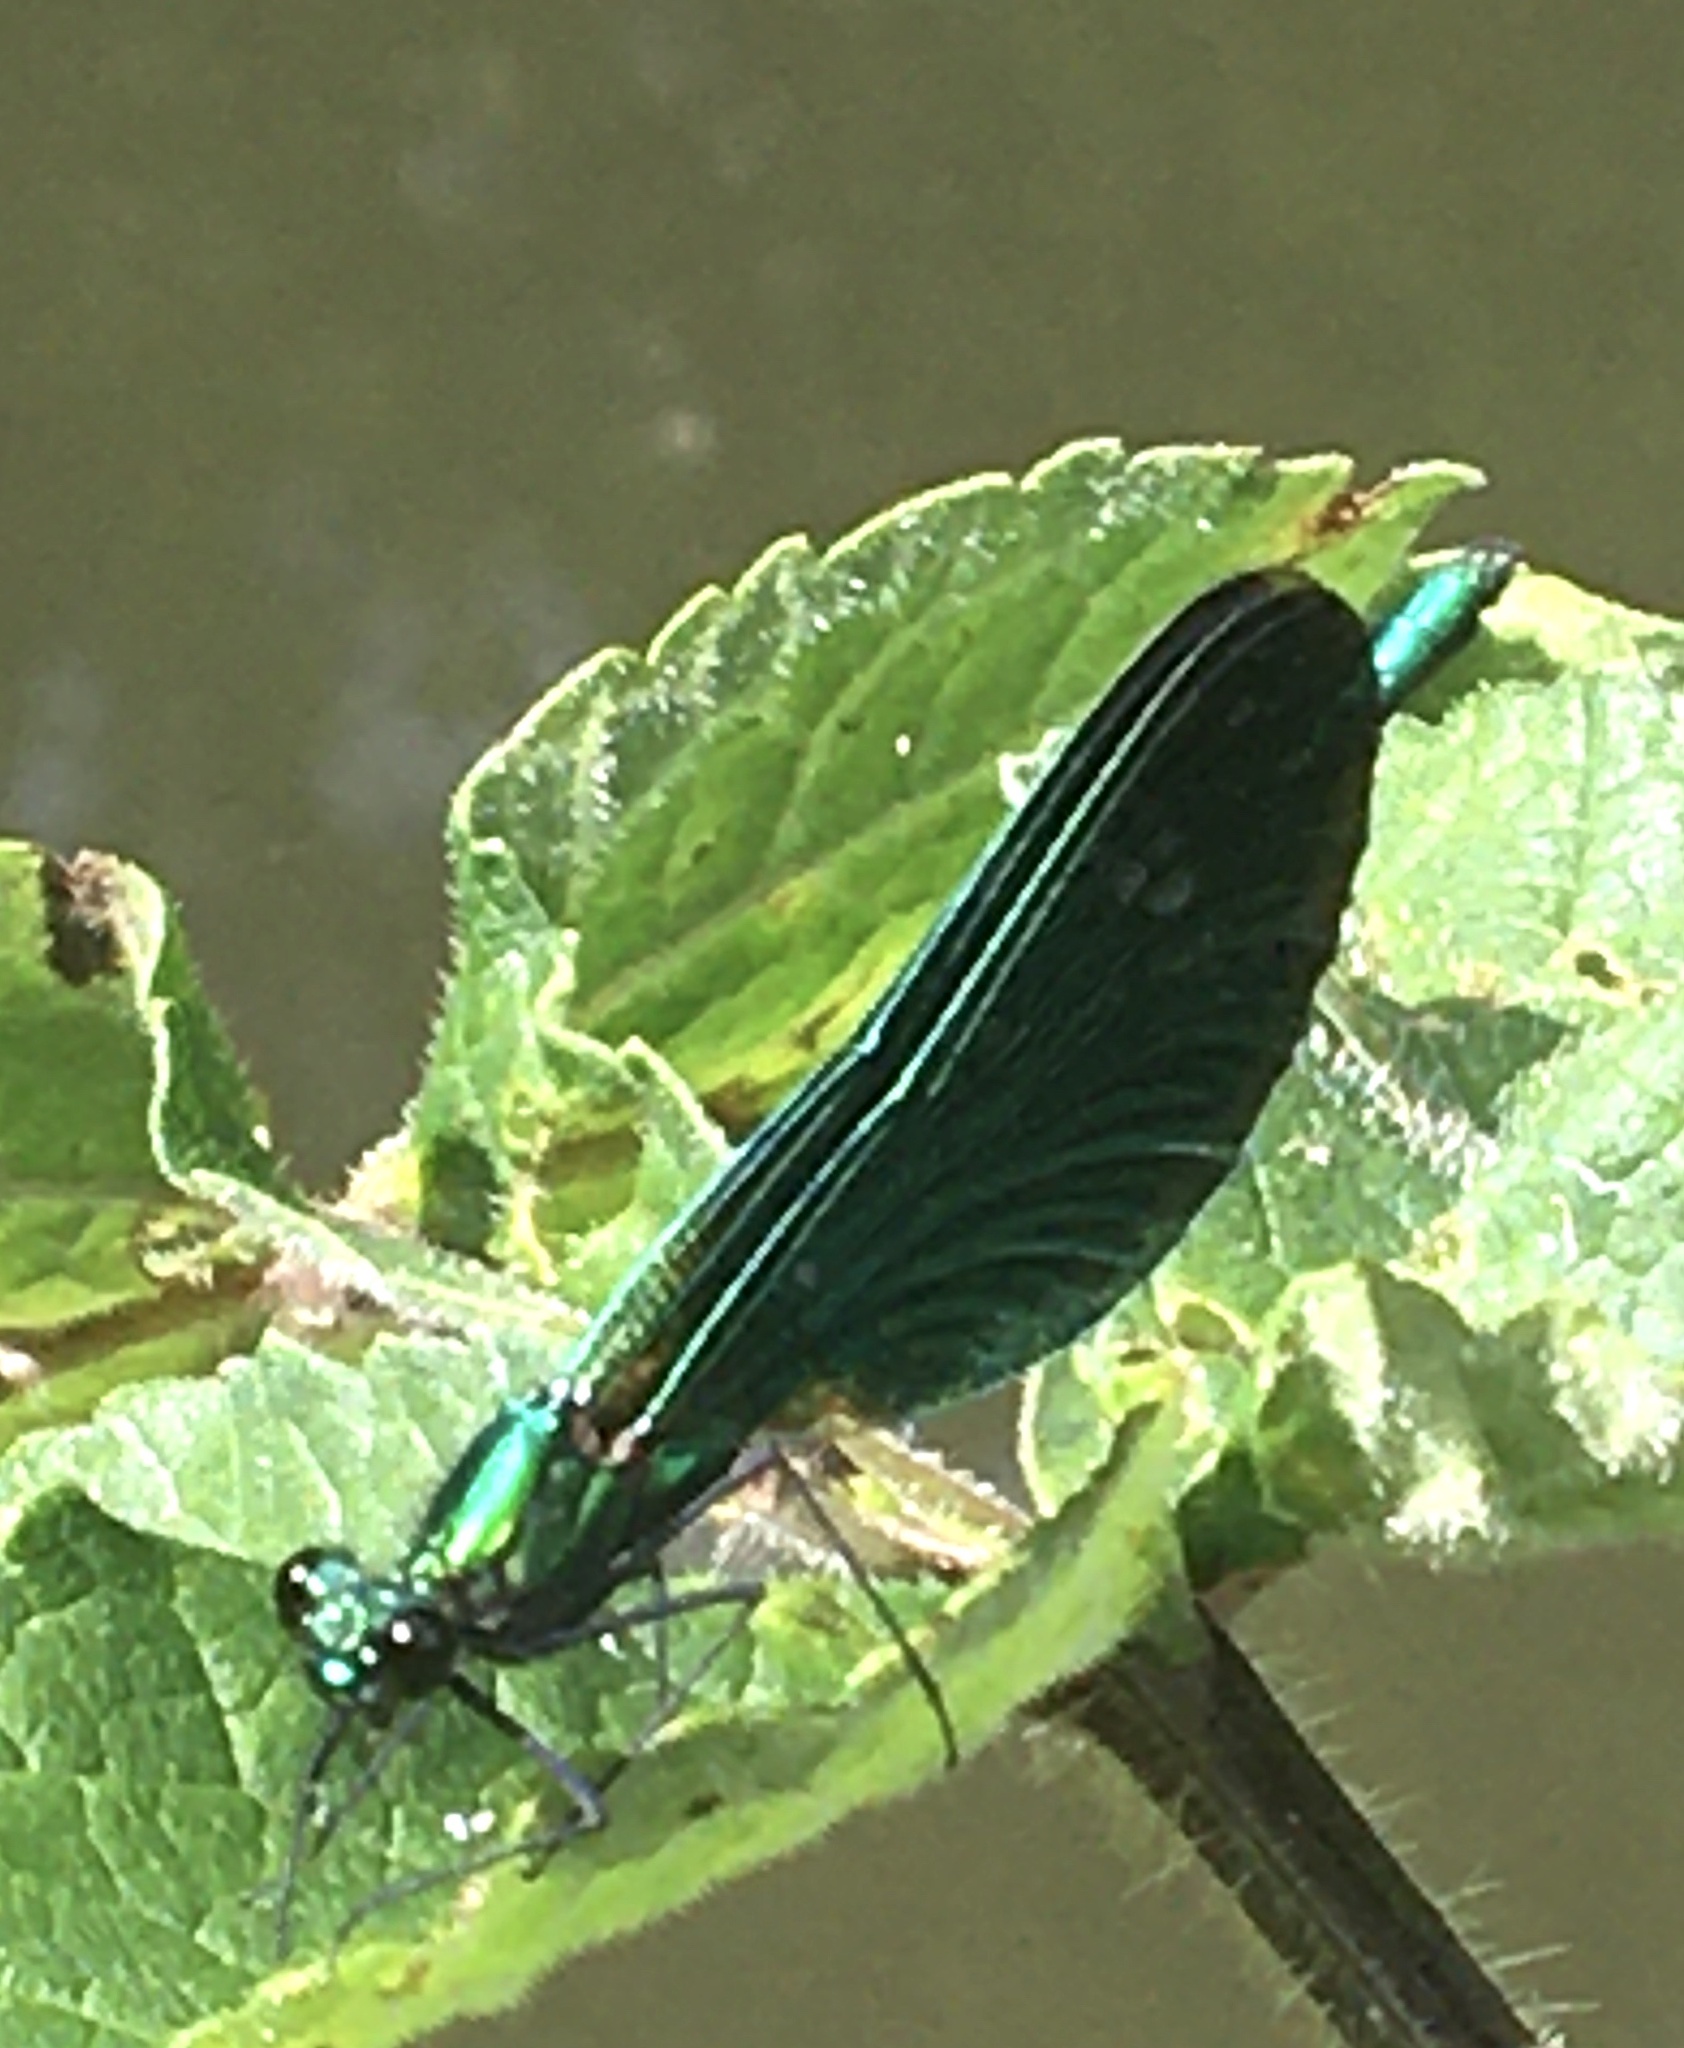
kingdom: Animalia
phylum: Arthropoda
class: Insecta
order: Odonata
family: Calopterygidae
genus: Calopteryx
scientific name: Calopteryx virgo
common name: Beautiful demoiselle
